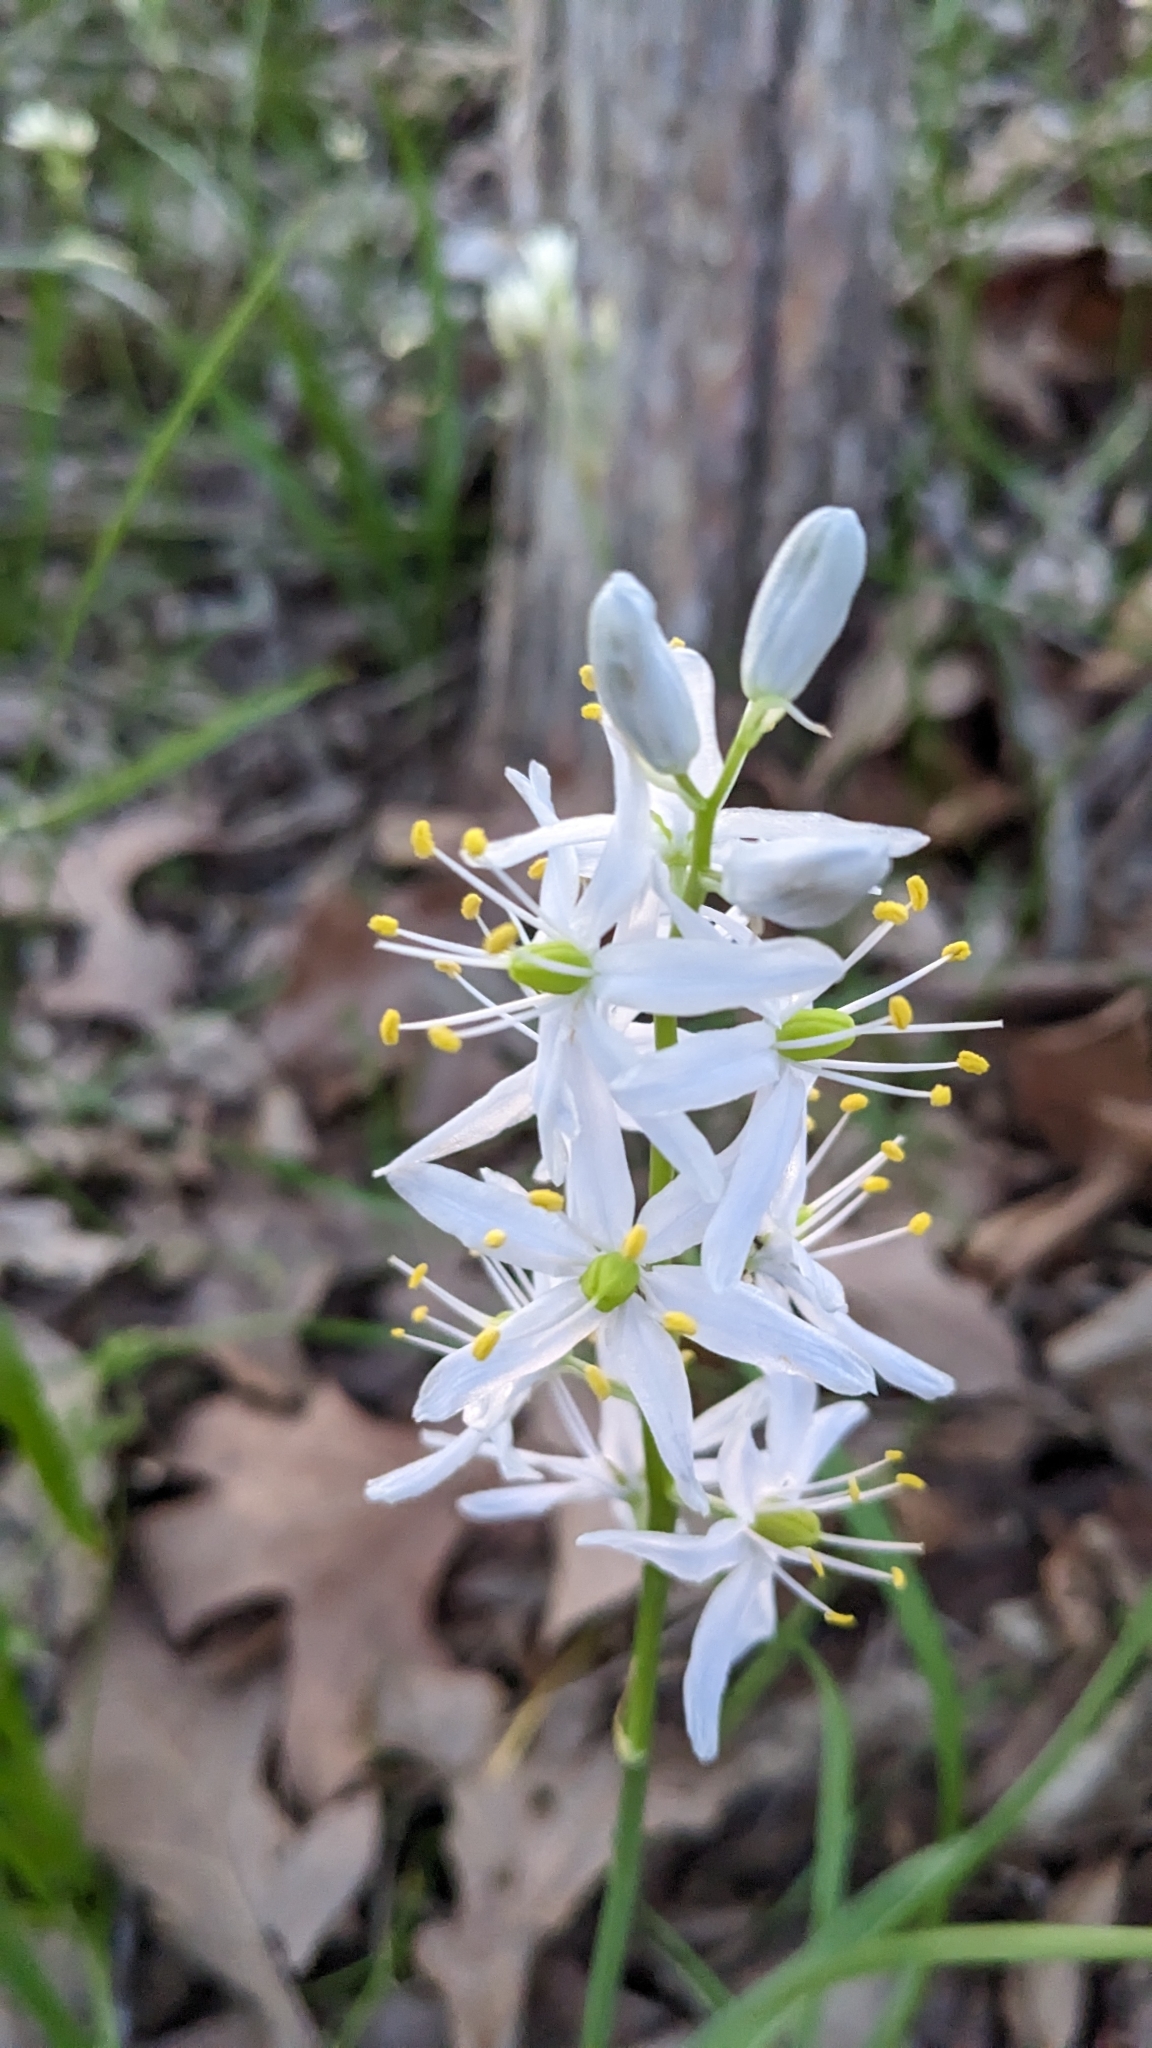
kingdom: Plantae
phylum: Tracheophyta
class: Liliopsida
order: Asparagales
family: Asparagaceae
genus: Camassia
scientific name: Camassia scilloides
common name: Wild hyacinth
